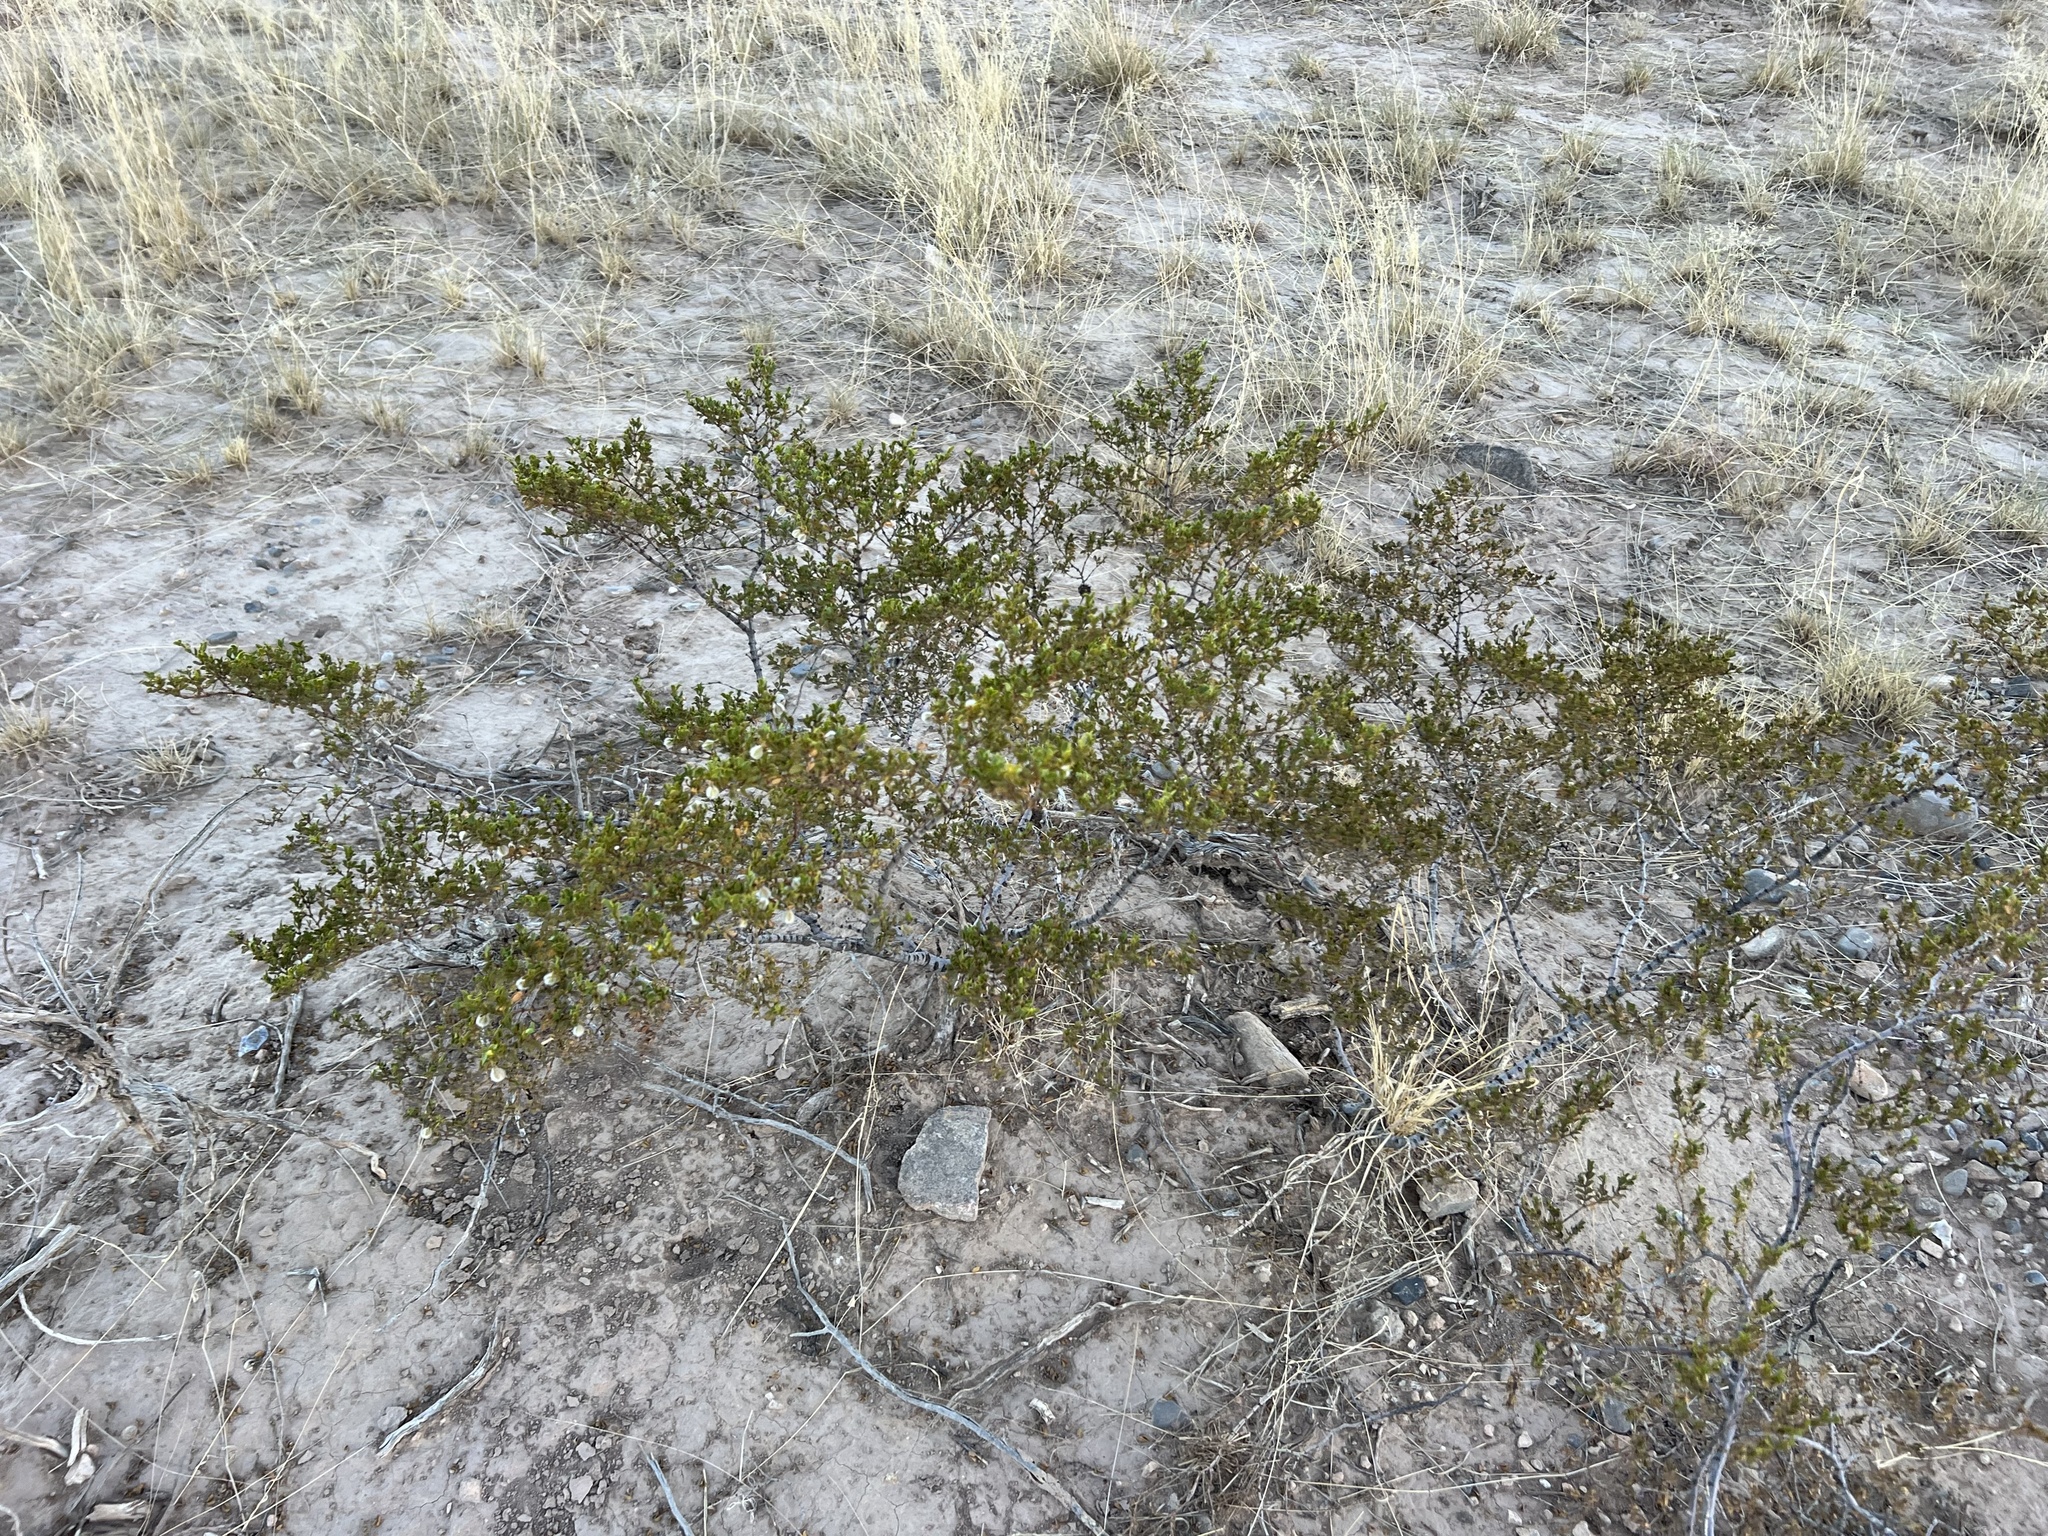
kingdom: Plantae
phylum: Tracheophyta
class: Magnoliopsida
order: Zygophyllales
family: Zygophyllaceae
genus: Larrea
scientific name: Larrea tridentata
